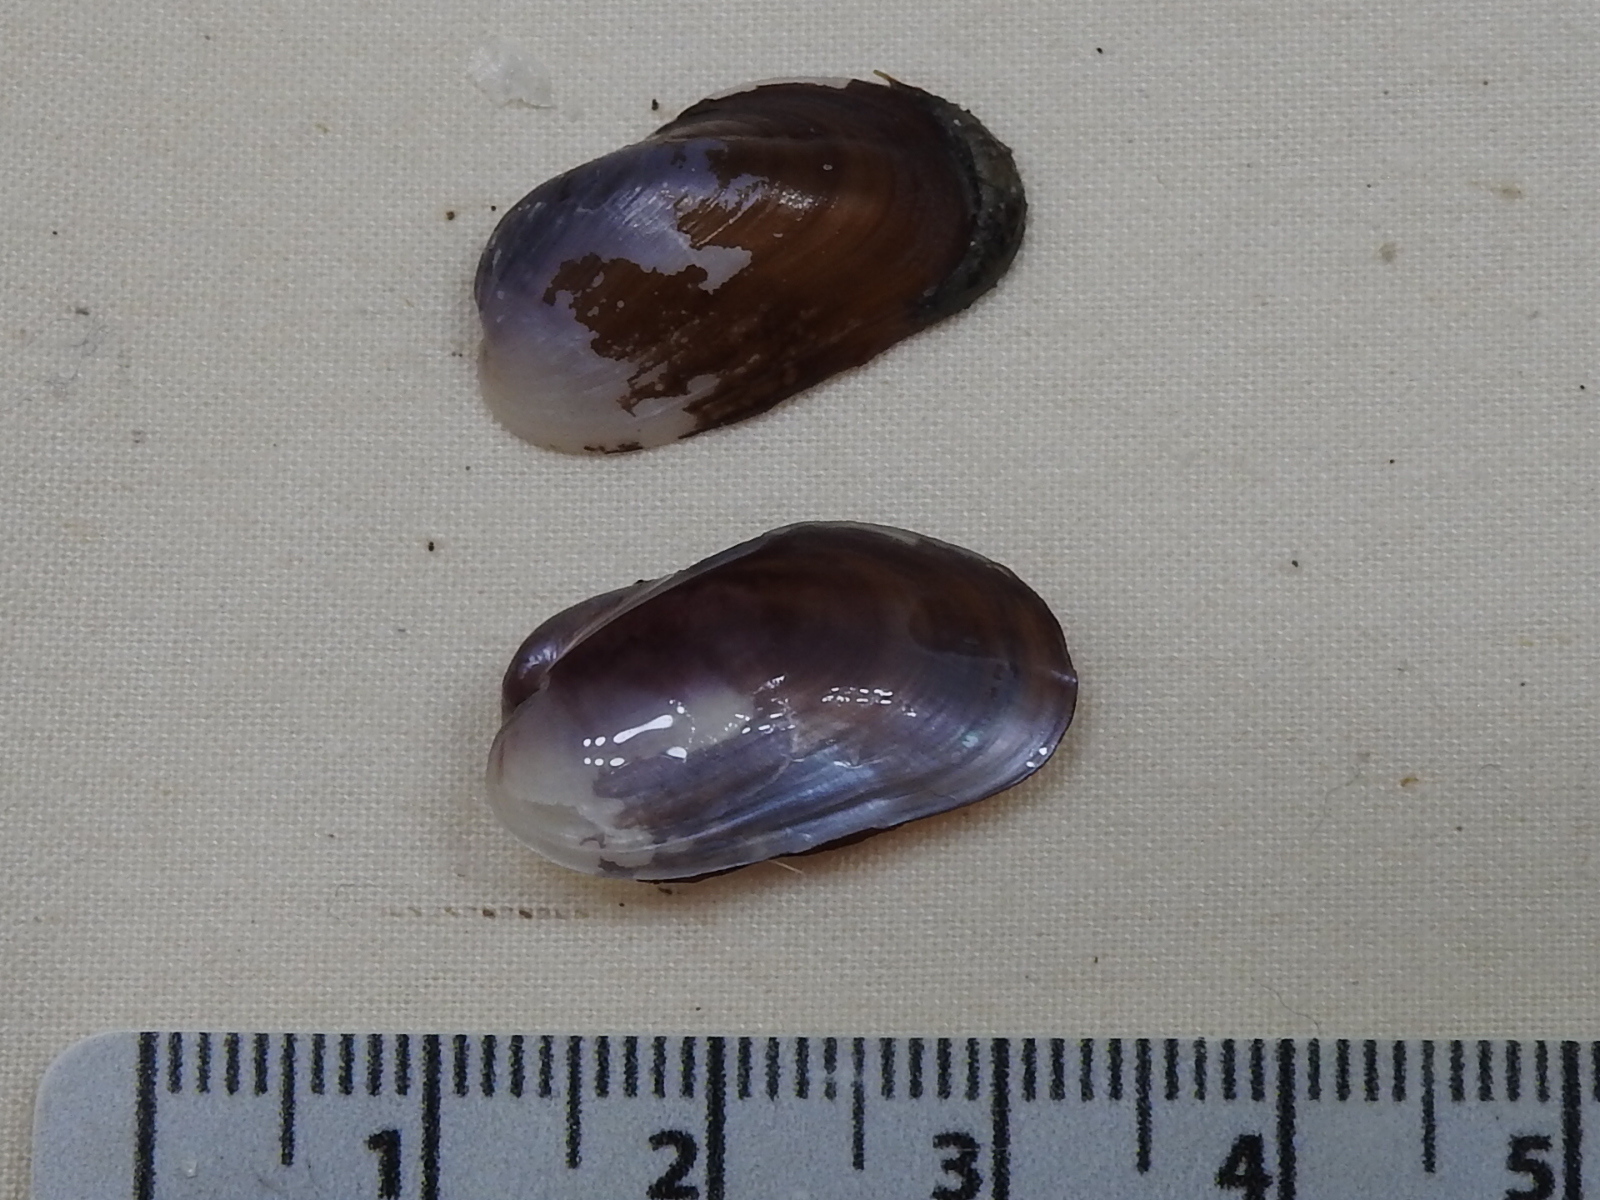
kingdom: Animalia
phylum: Mollusca
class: Bivalvia
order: Mytilida
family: Mytilidae
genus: Lioberus
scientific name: Lioberus castanea
